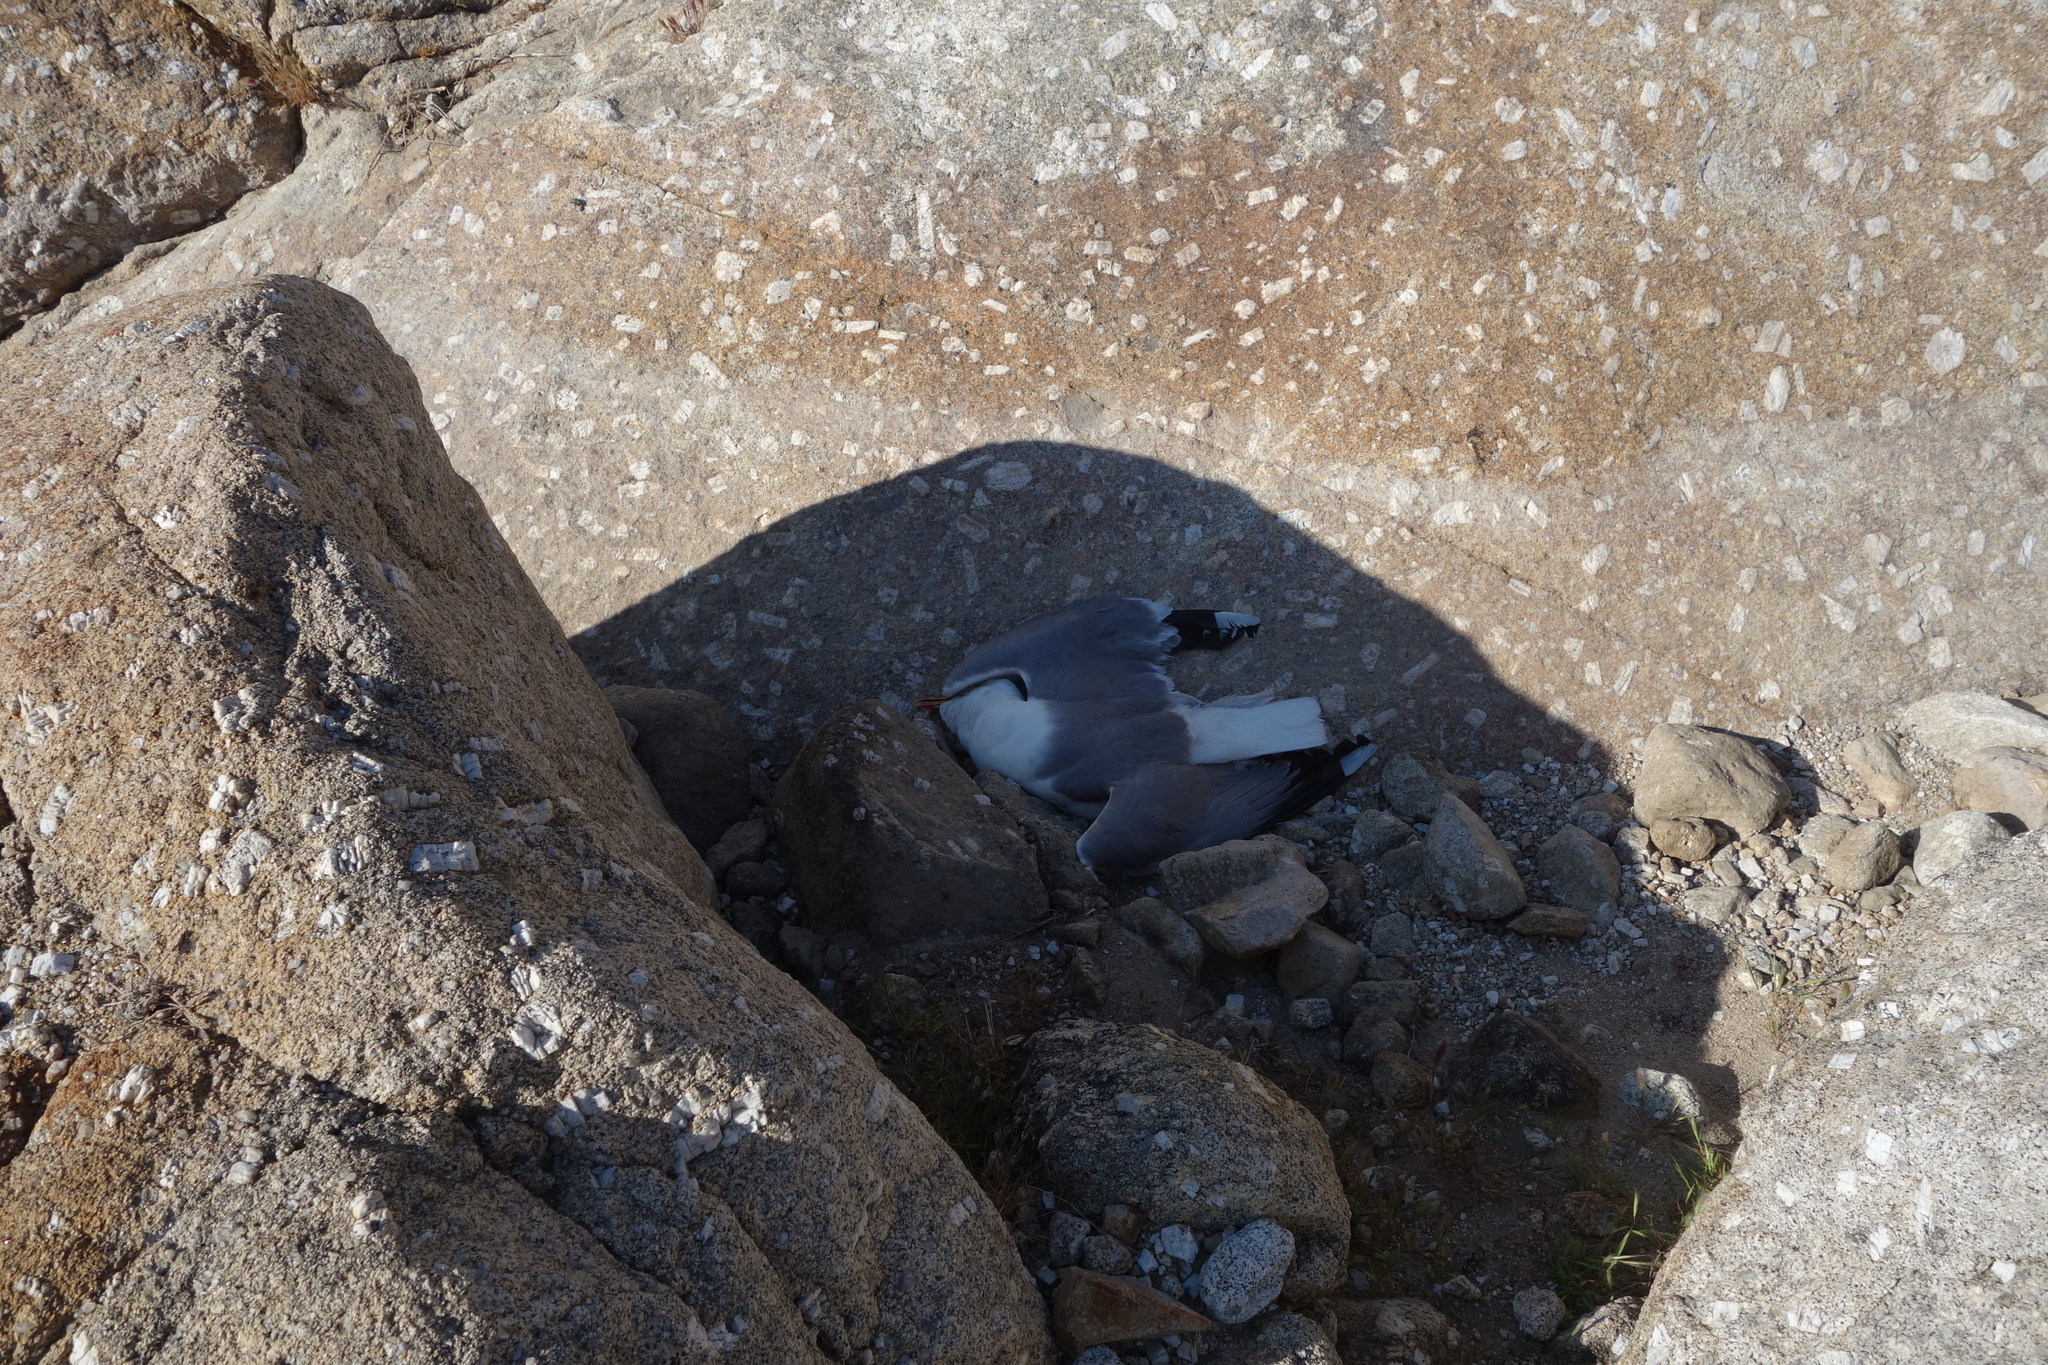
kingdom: Animalia
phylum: Chordata
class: Aves
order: Charadriiformes
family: Laridae
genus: Larus
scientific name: Larus michahellis
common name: Yellow-legged gull
